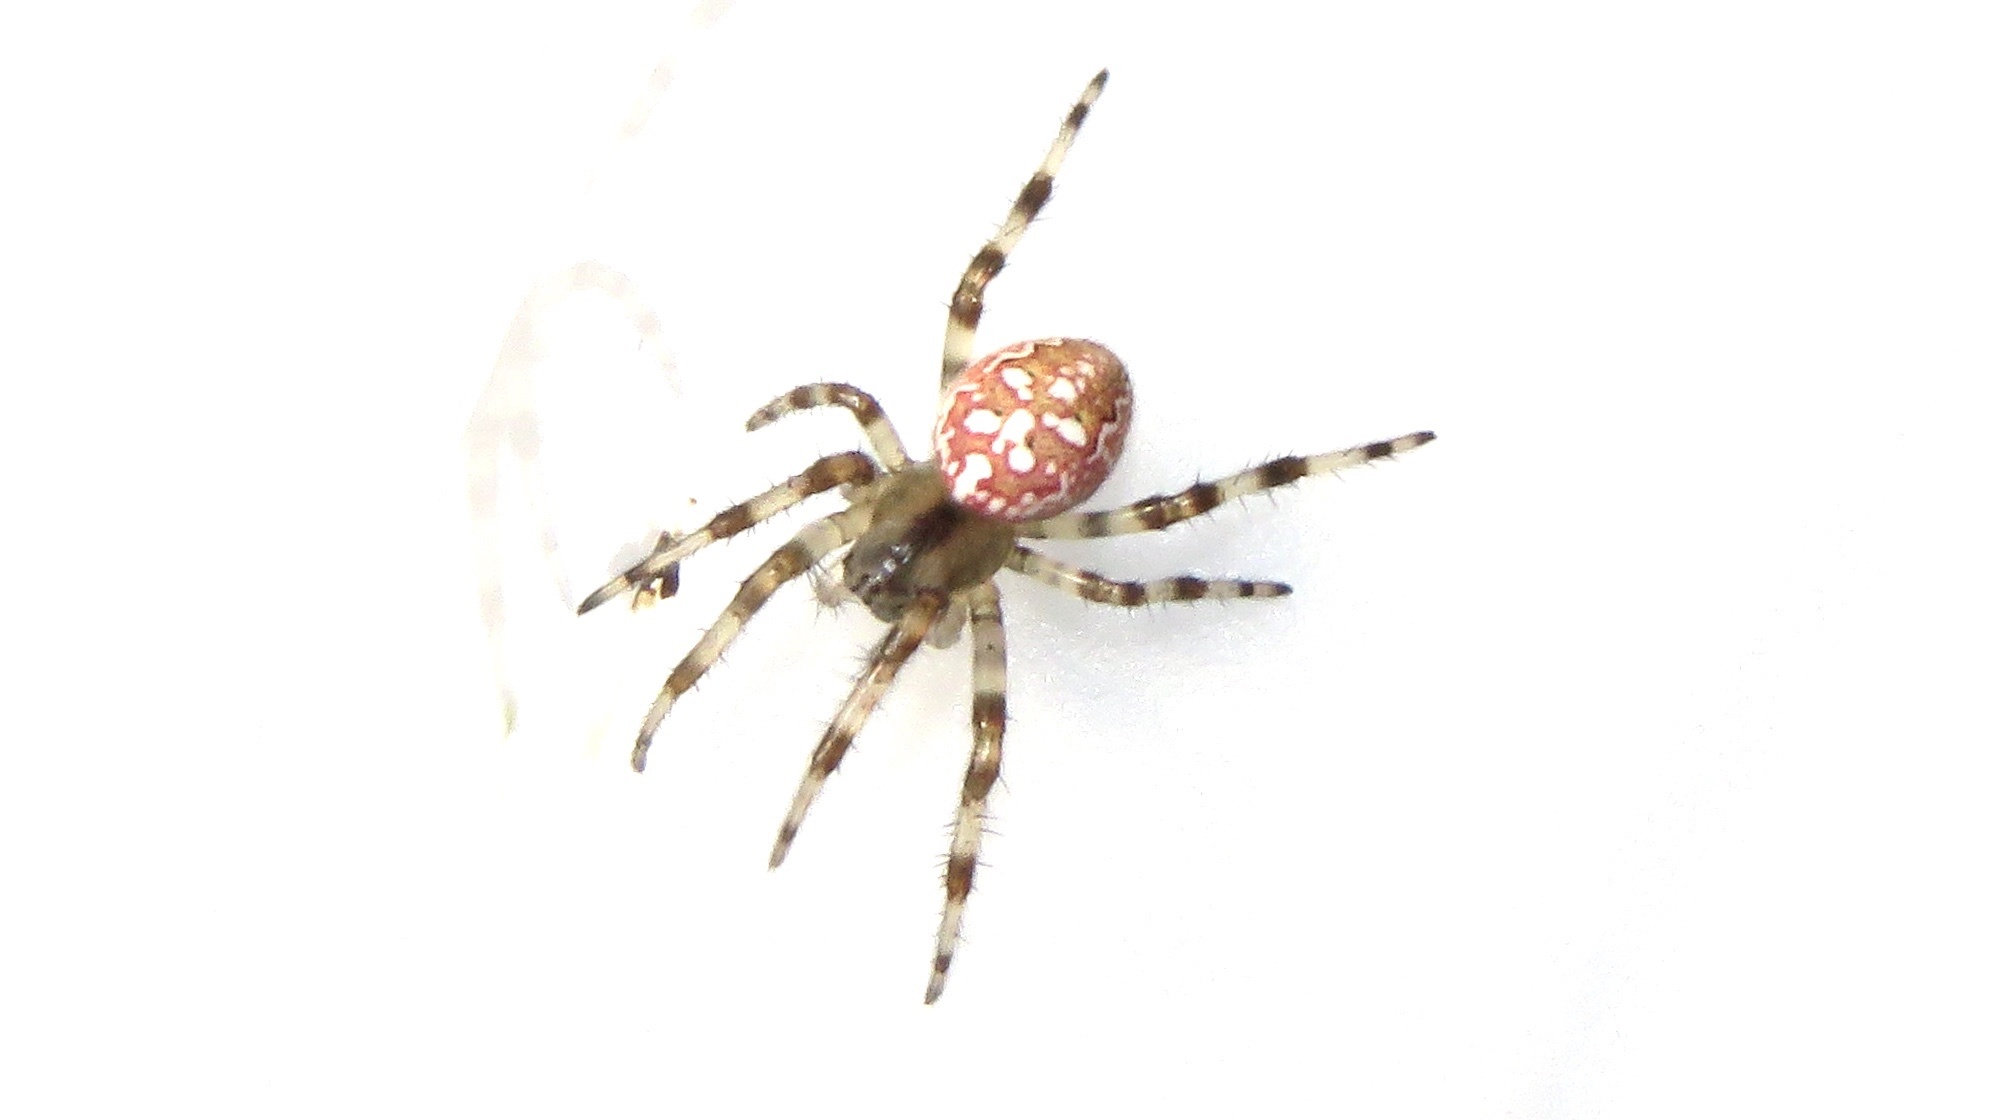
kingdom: Animalia
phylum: Arthropoda
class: Arachnida
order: Araneae
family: Araneidae
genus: Araneus
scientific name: Araneus trifolium
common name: Shamrock orbweaver
